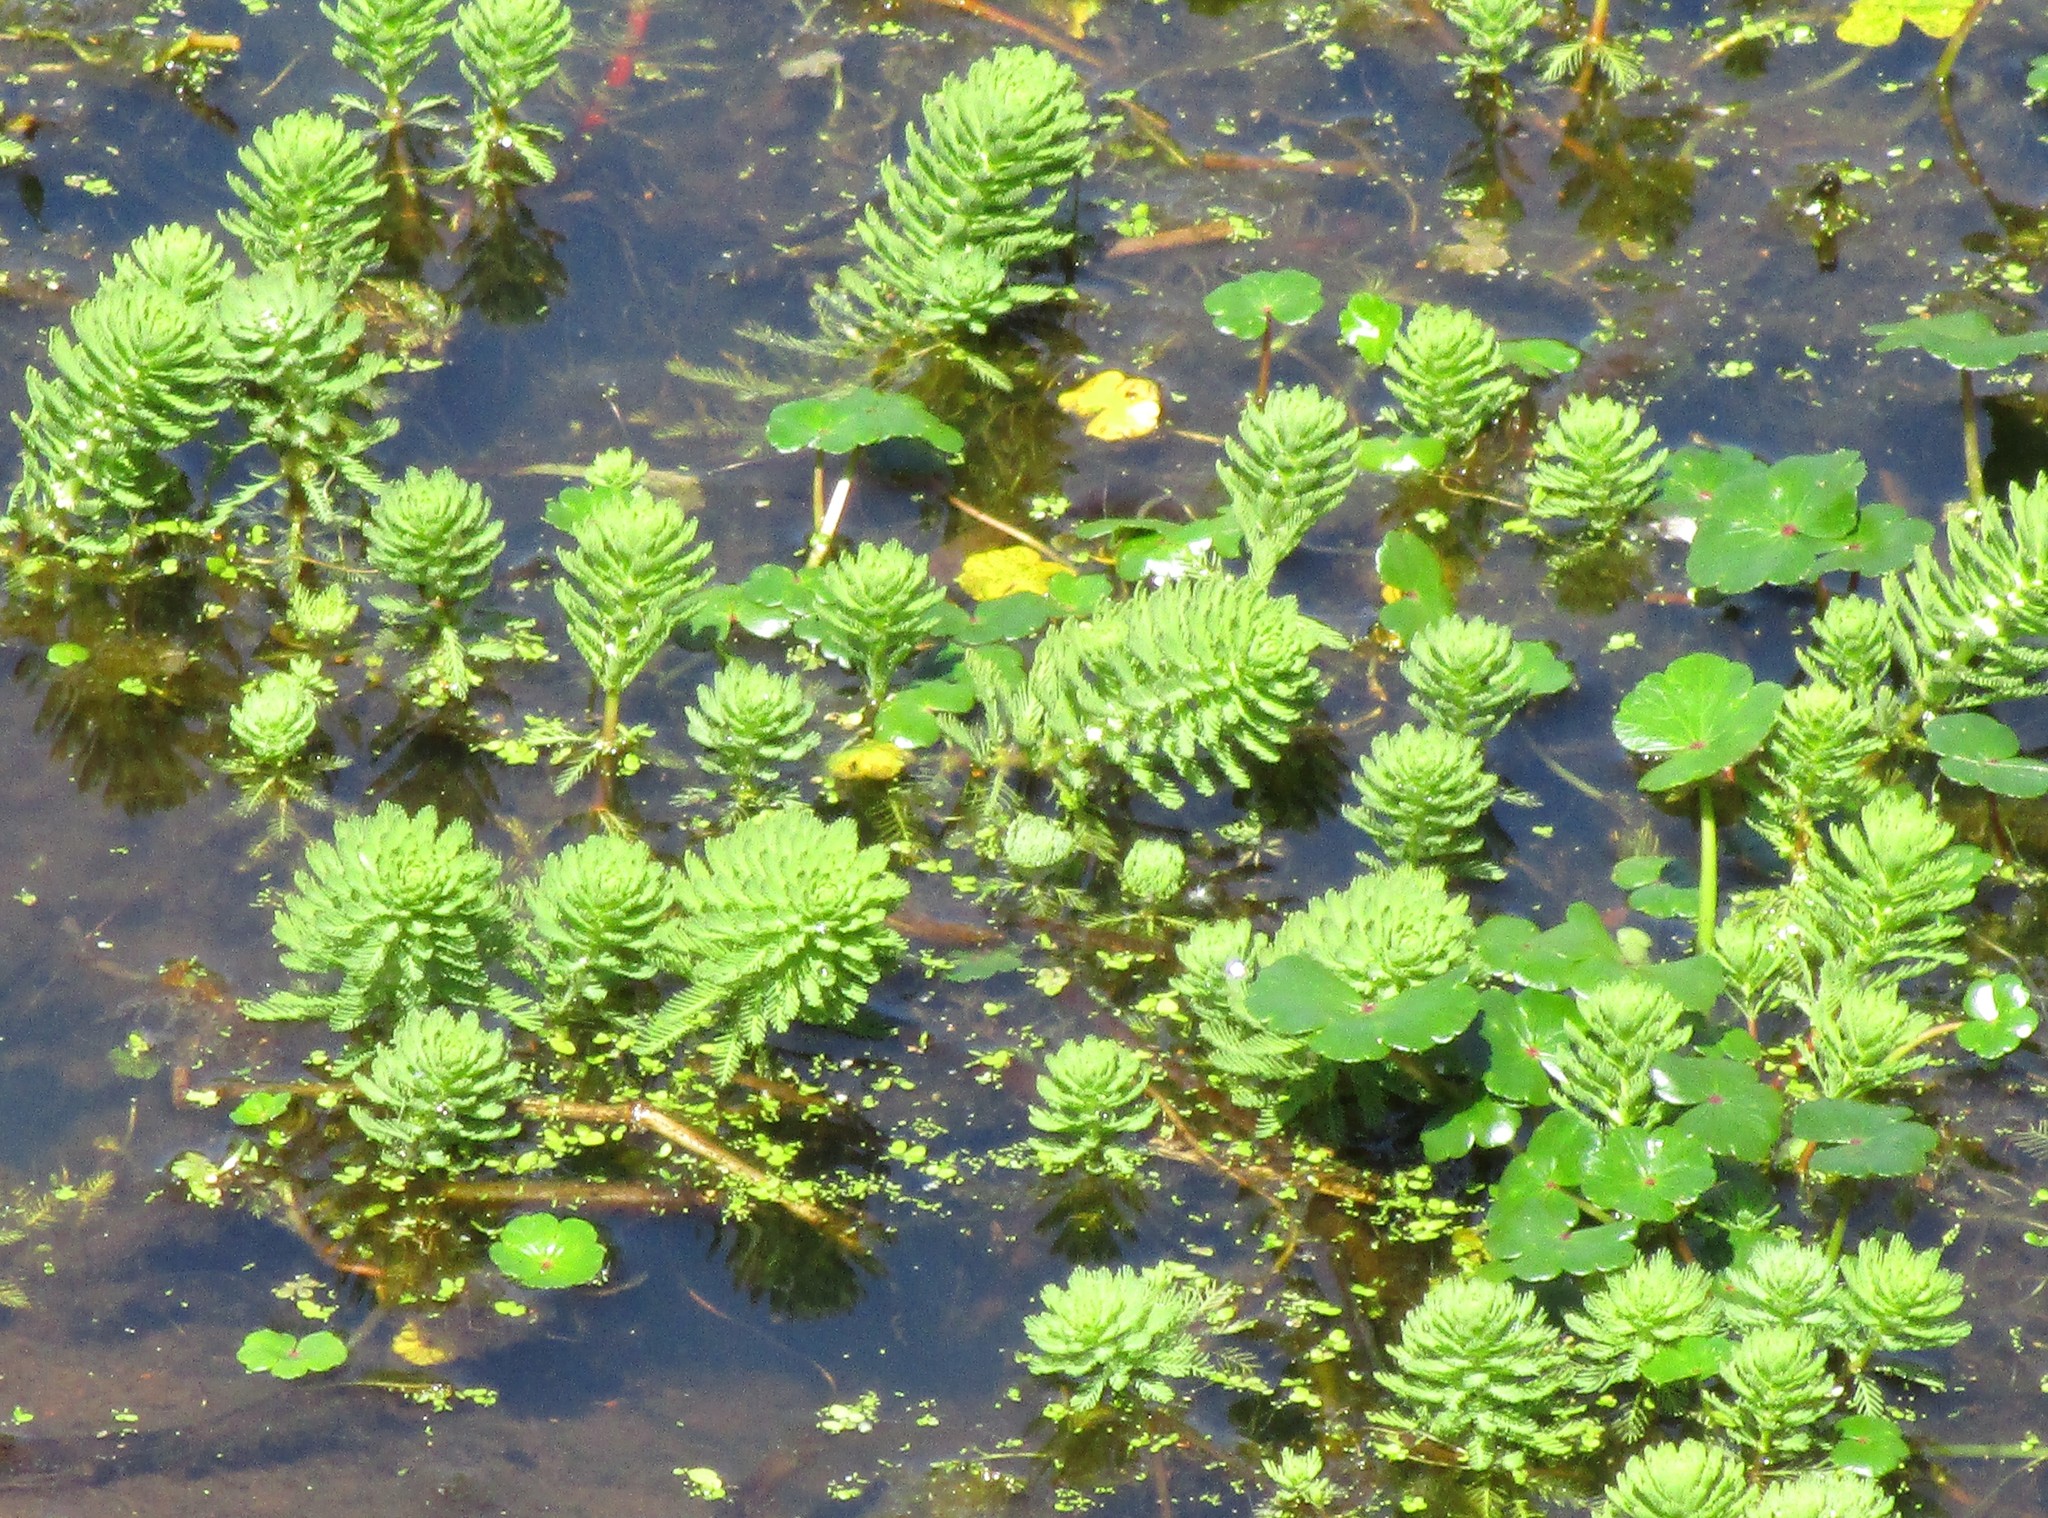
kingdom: Plantae
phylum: Tracheophyta
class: Magnoliopsida
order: Saxifragales
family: Haloragaceae
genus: Myriophyllum
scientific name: Myriophyllum aquaticum
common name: Parrot's feather
